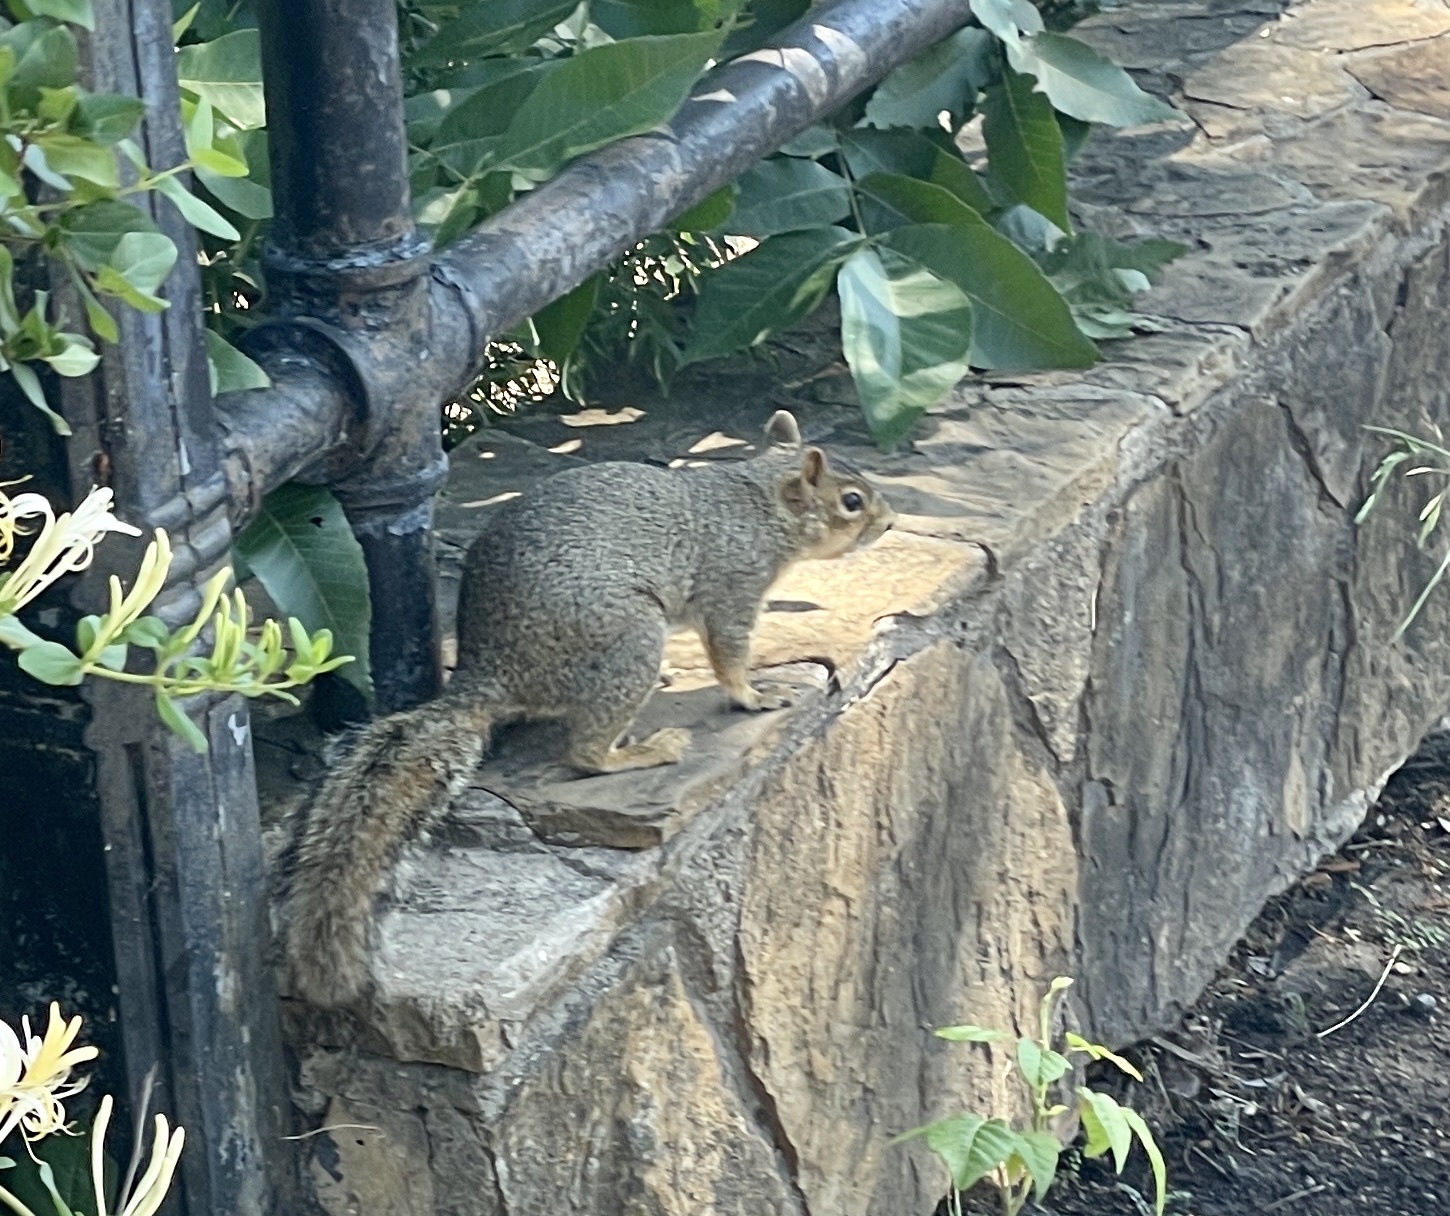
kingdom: Animalia
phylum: Chordata
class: Mammalia
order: Rodentia
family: Sciuridae
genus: Sciurus
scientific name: Sciurus niger
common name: Fox squirrel
